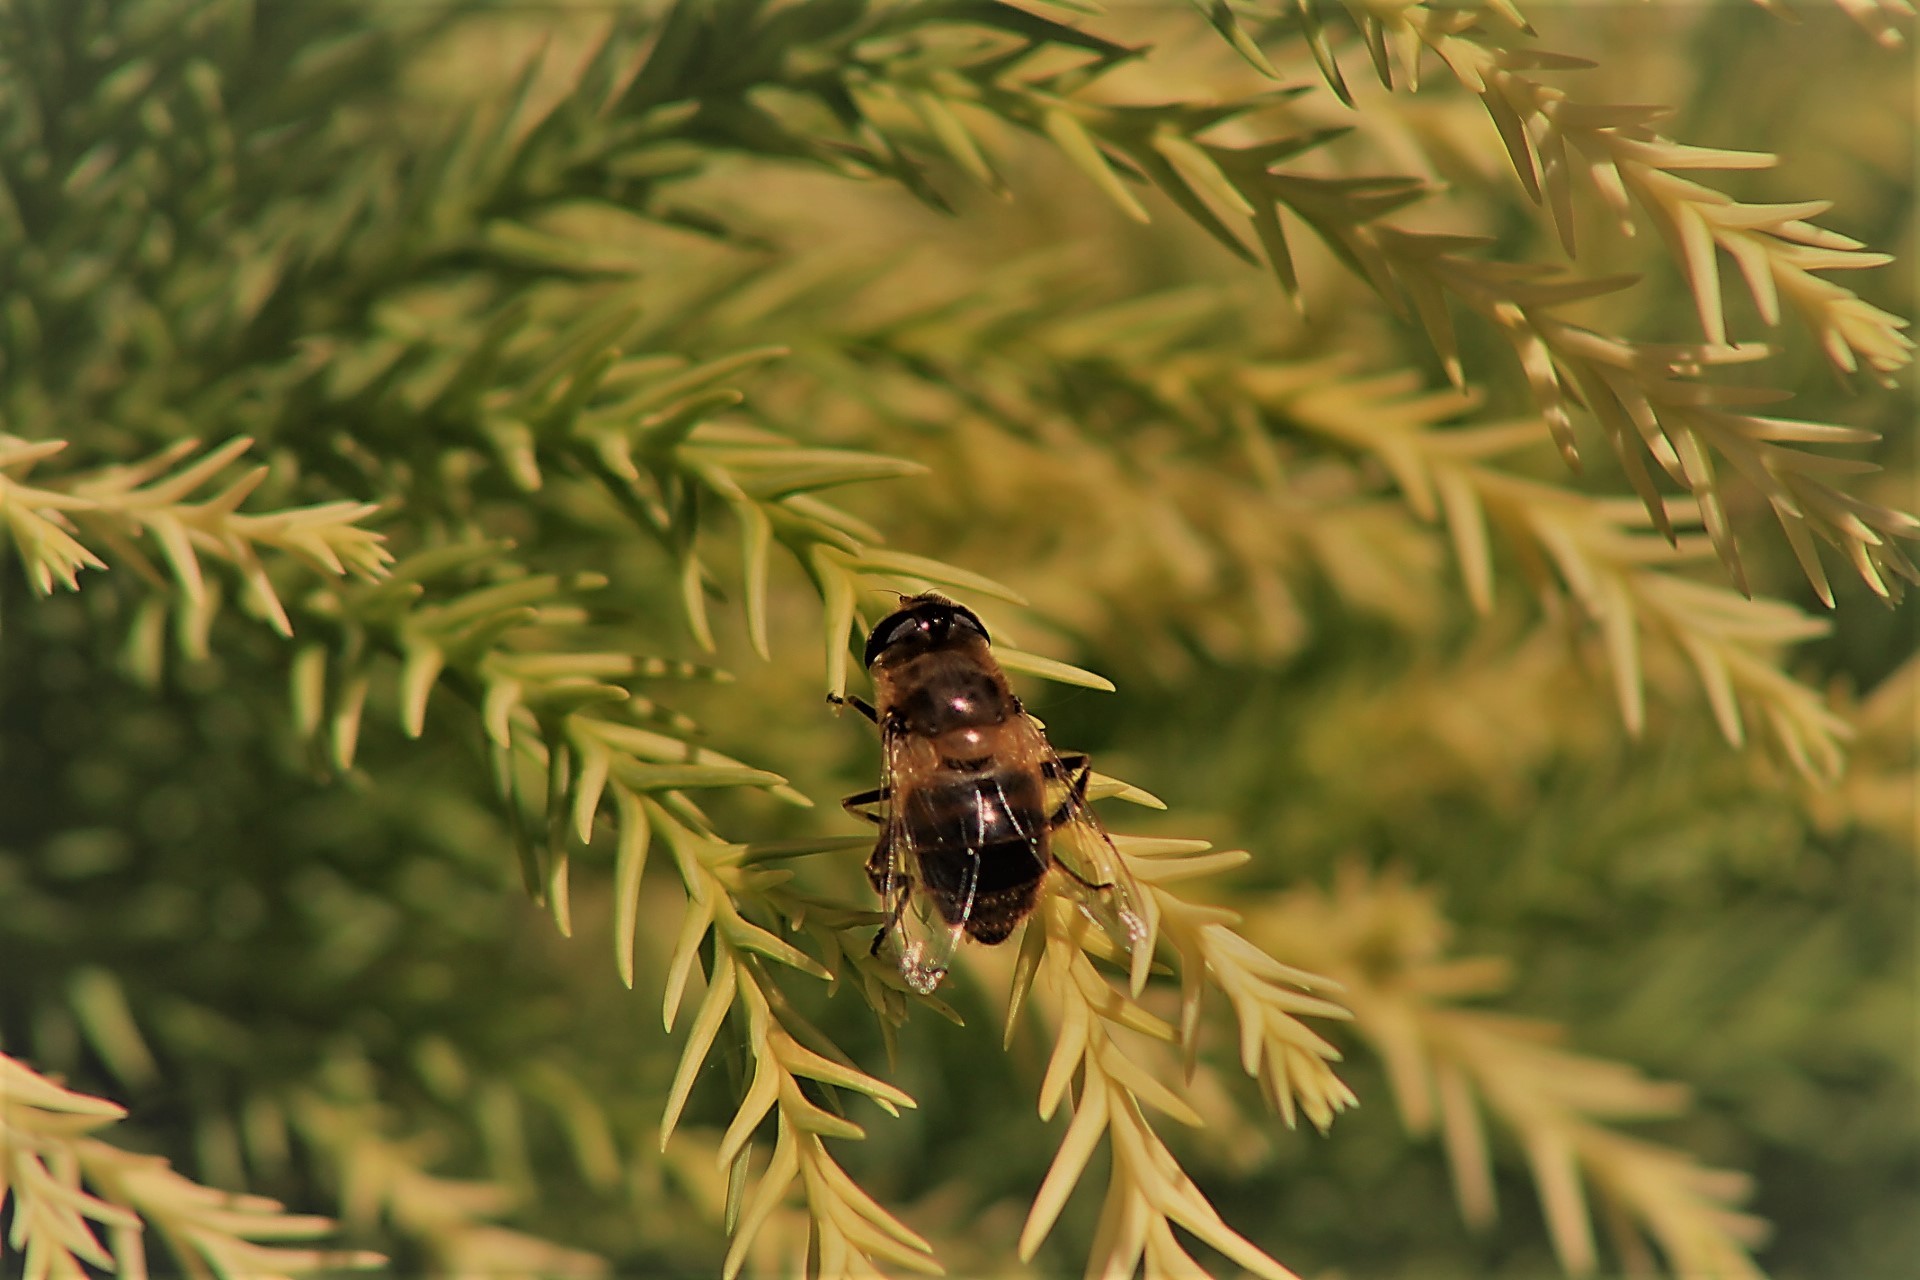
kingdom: Animalia
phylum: Arthropoda
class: Insecta
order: Diptera
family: Syrphidae
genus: Eristalis
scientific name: Eristalis tenax
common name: Drone fly
